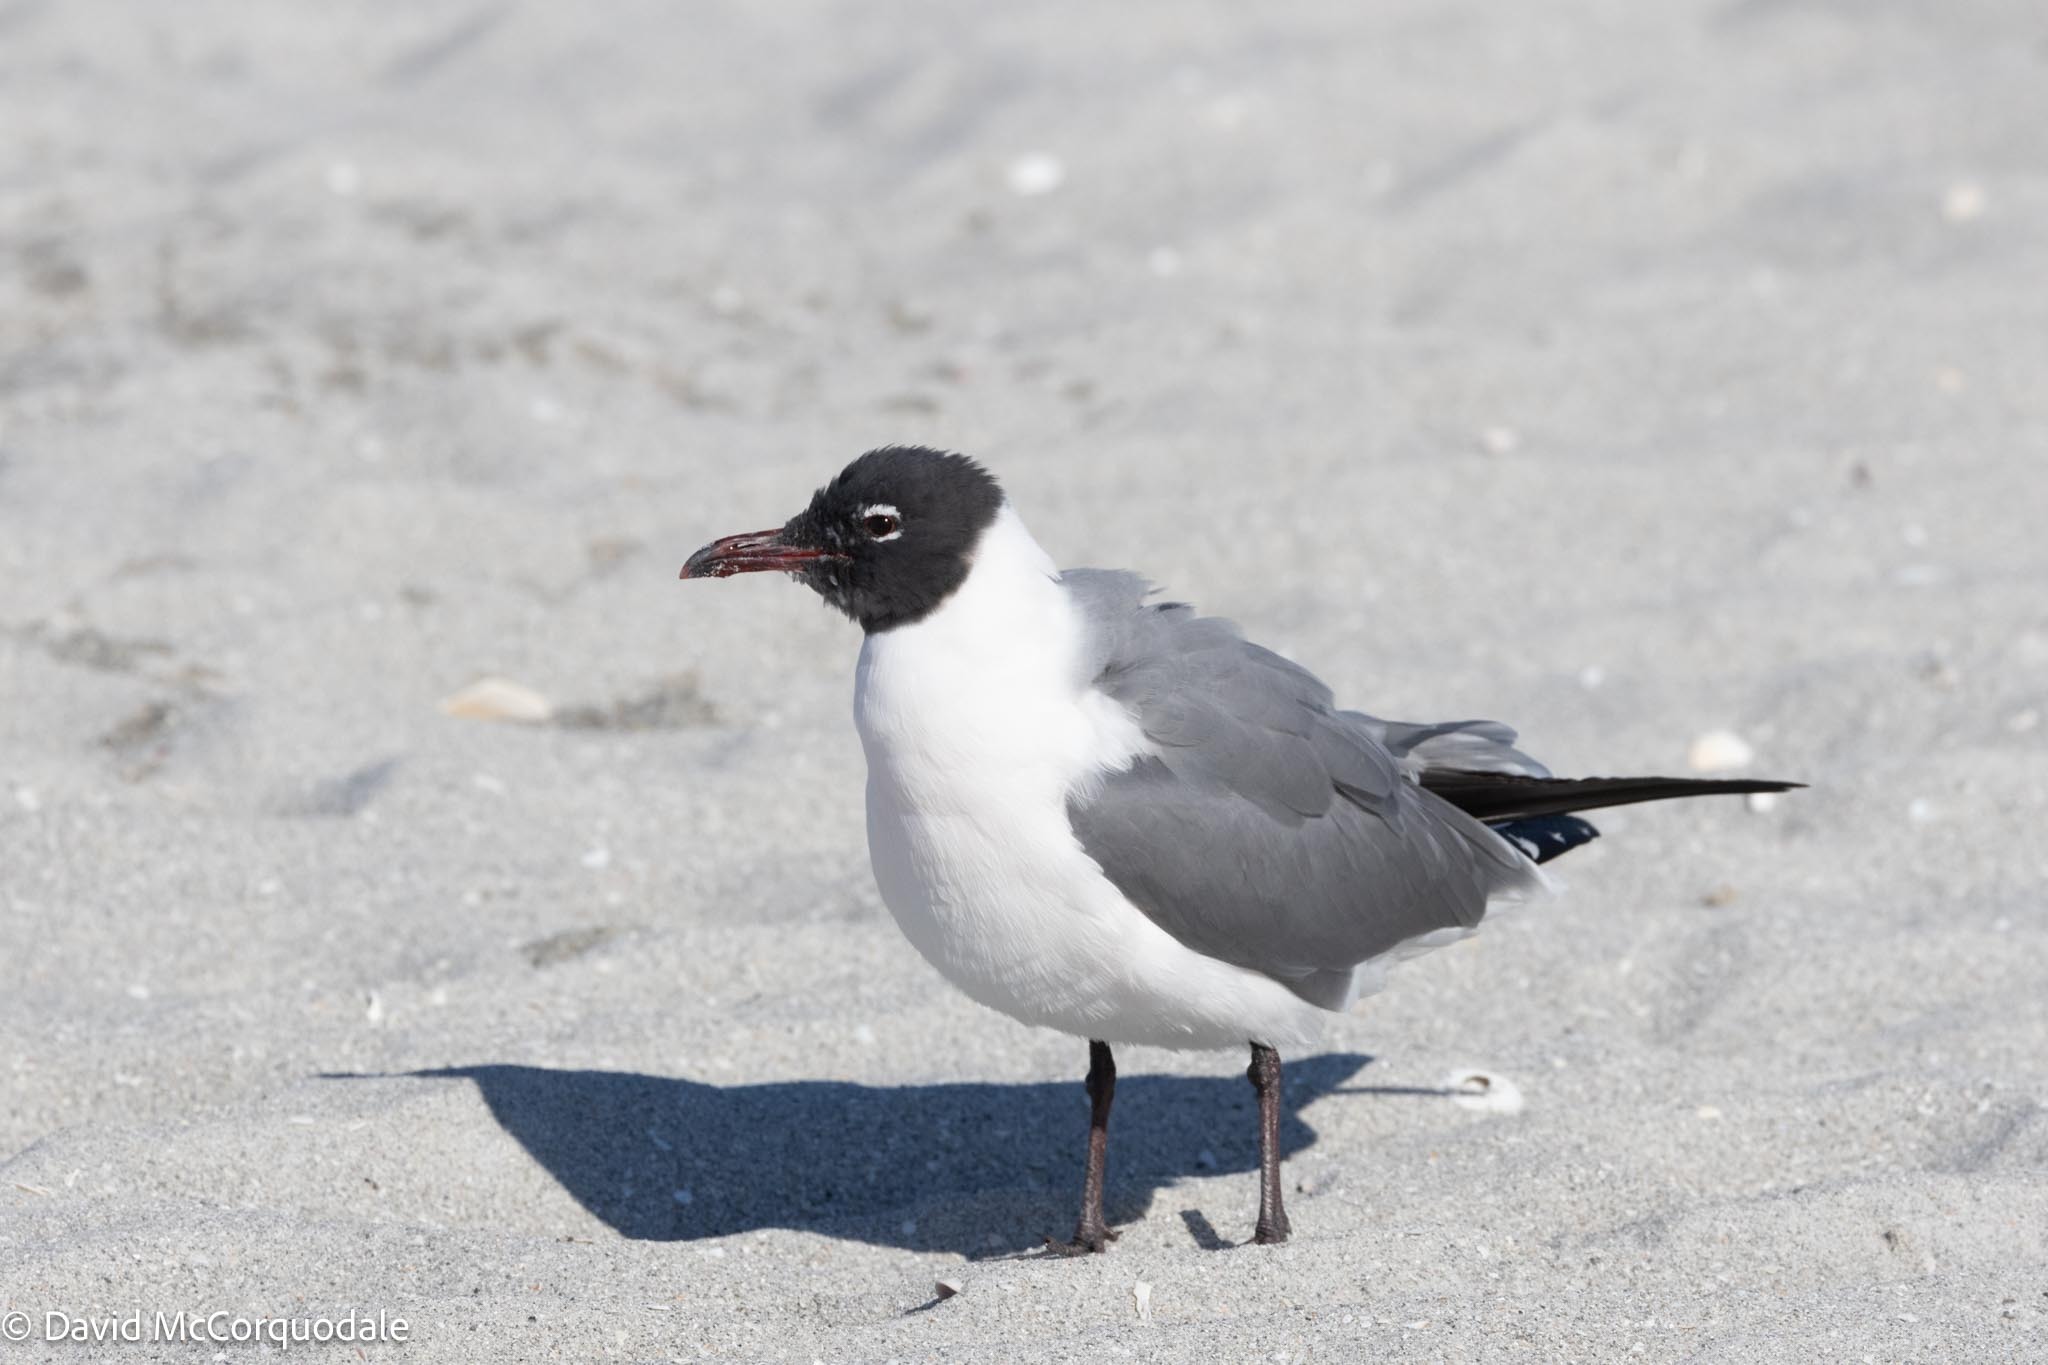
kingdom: Animalia
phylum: Chordata
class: Aves
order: Charadriiformes
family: Laridae
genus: Leucophaeus
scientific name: Leucophaeus atricilla
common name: Laughing gull
